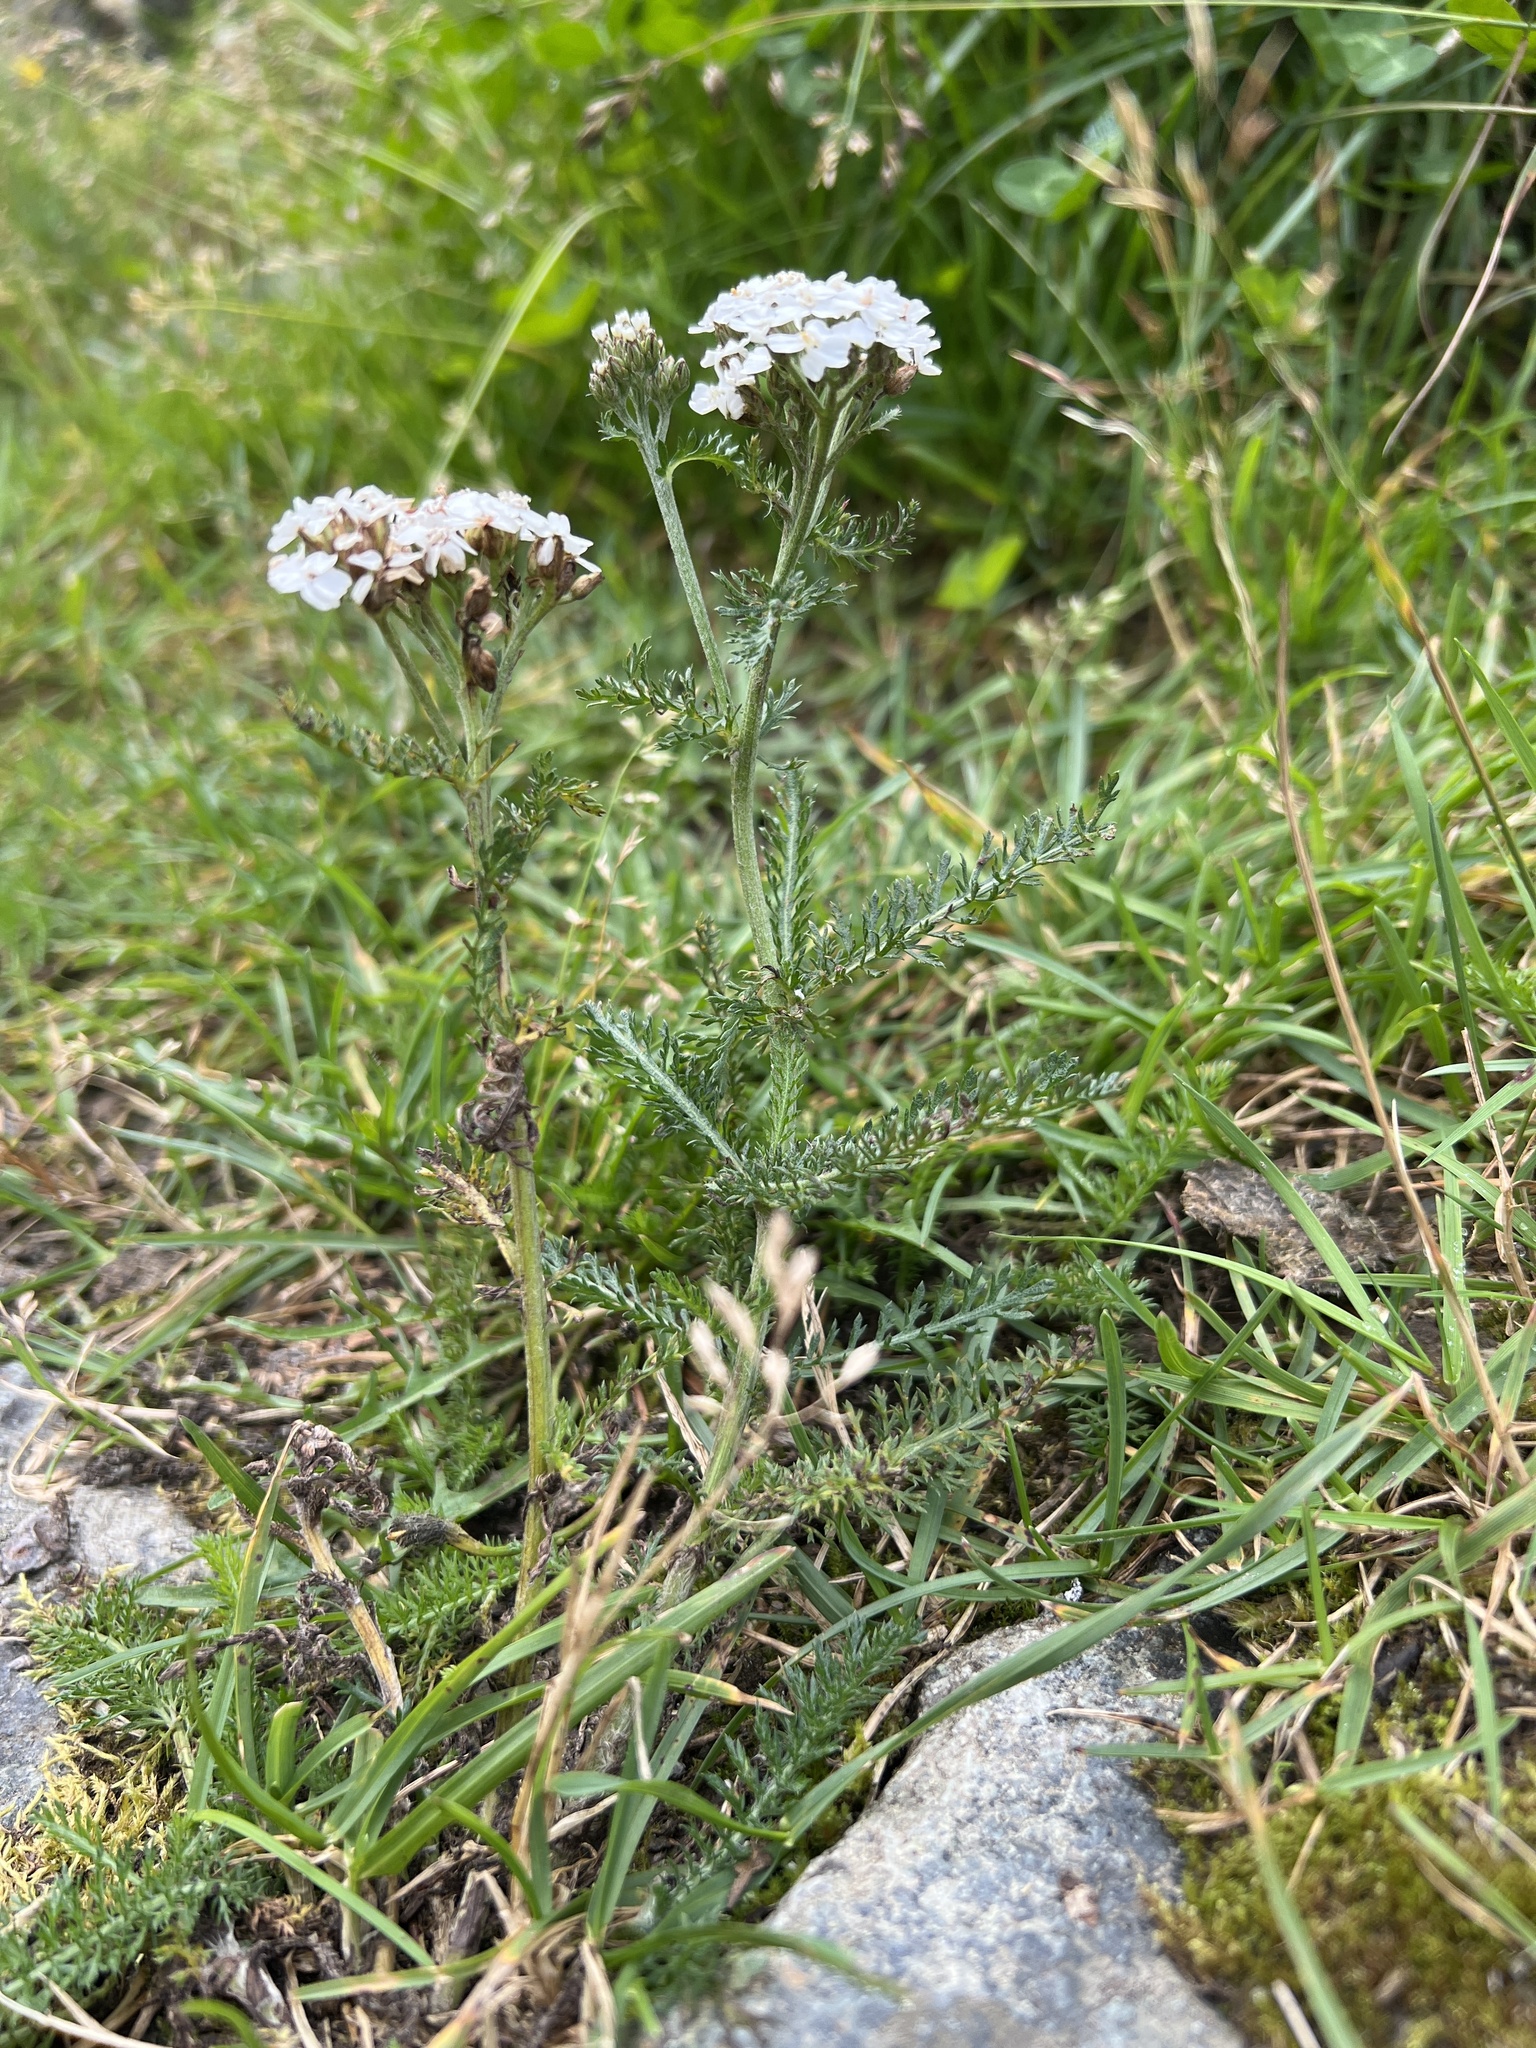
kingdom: Plantae
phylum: Tracheophyta
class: Magnoliopsida
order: Asterales
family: Asteraceae
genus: Achillea
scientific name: Achillea millefolium
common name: Yarrow
